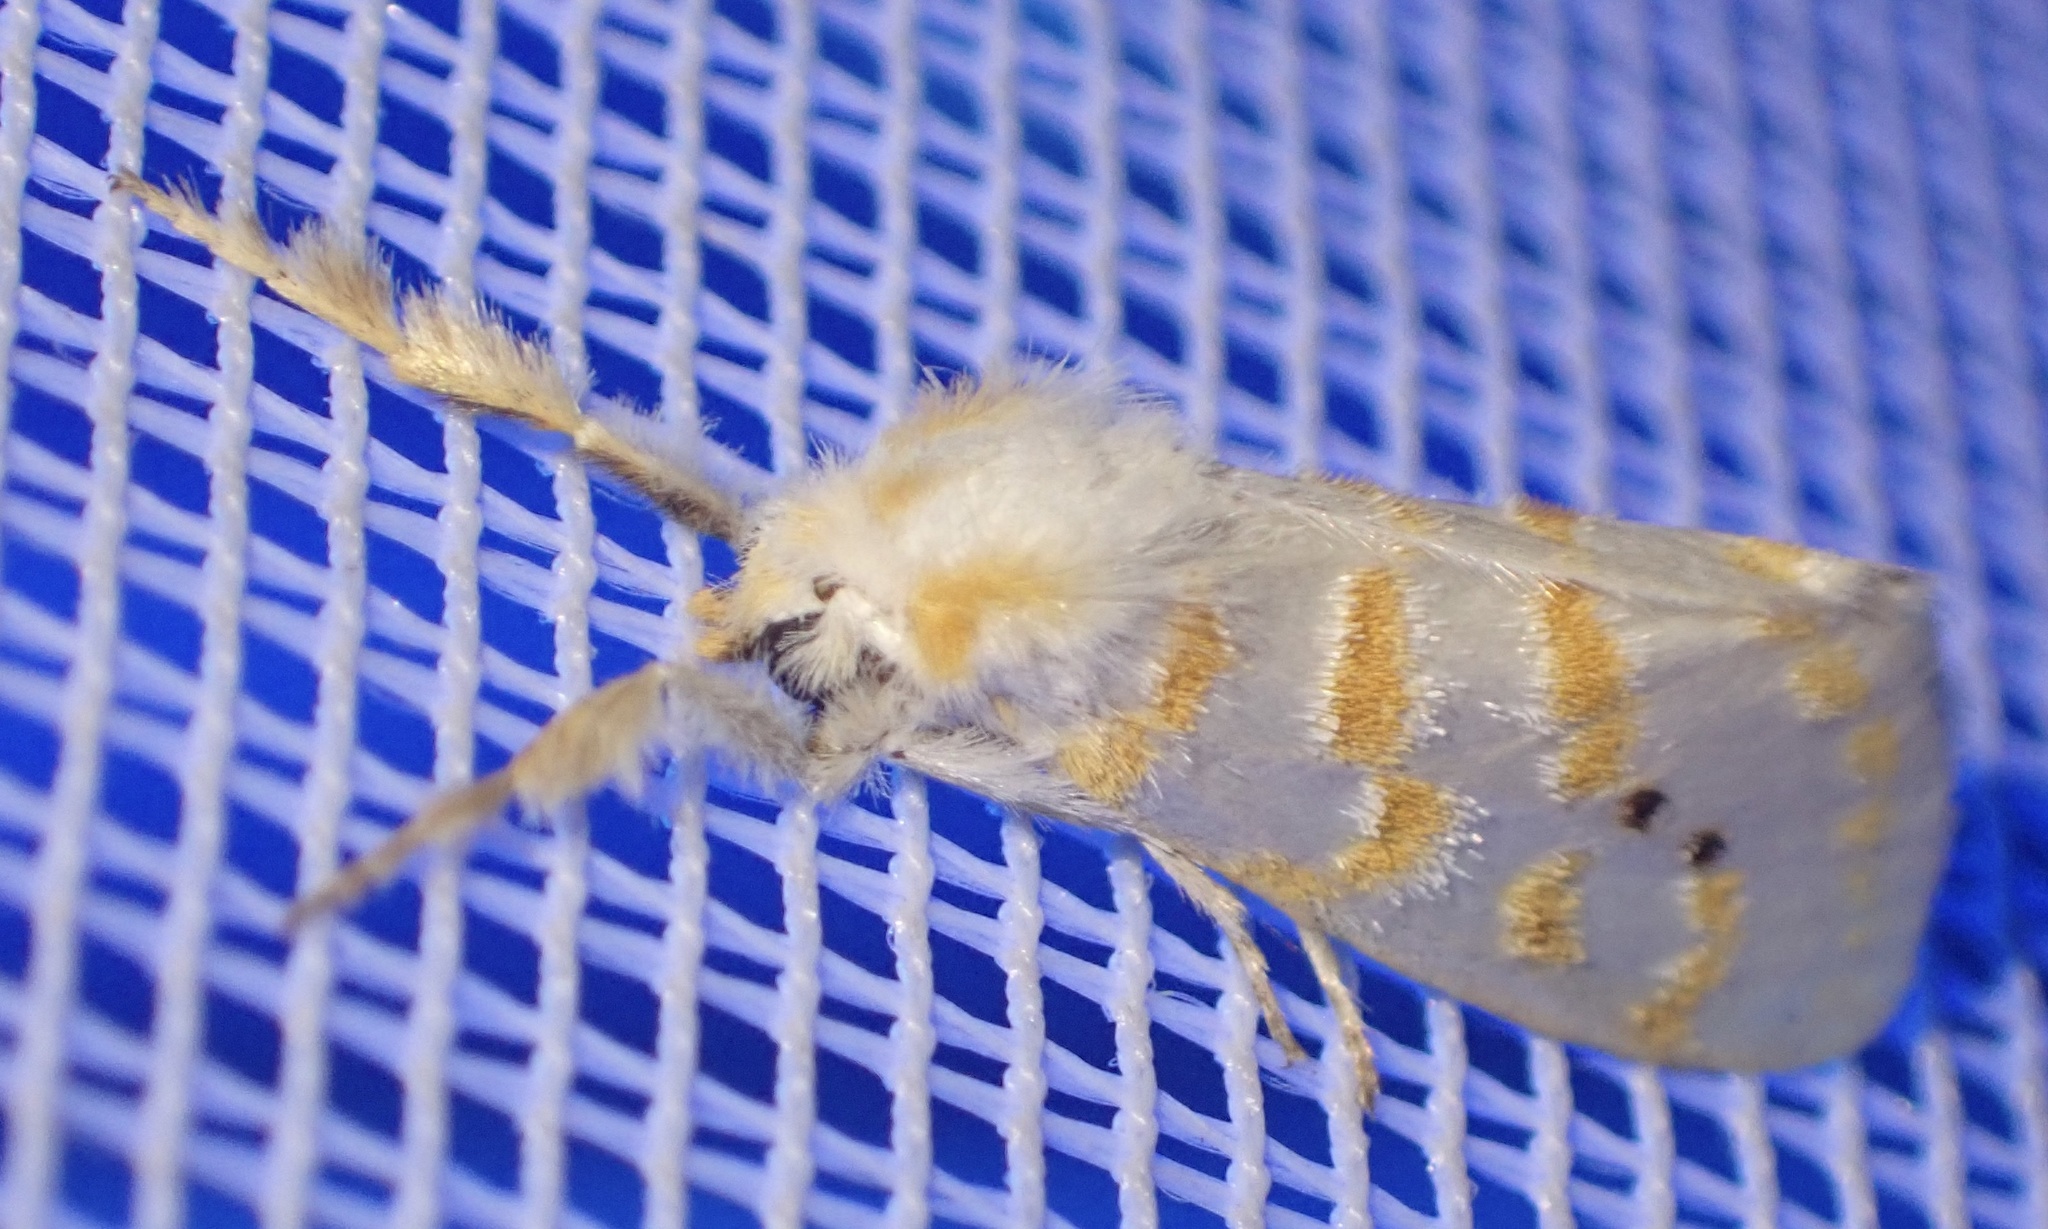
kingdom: Animalia
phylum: Arthropoda
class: Insecta
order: Lepidoptera
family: Erebidae
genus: Lacipa
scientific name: Lacipa nobilis
